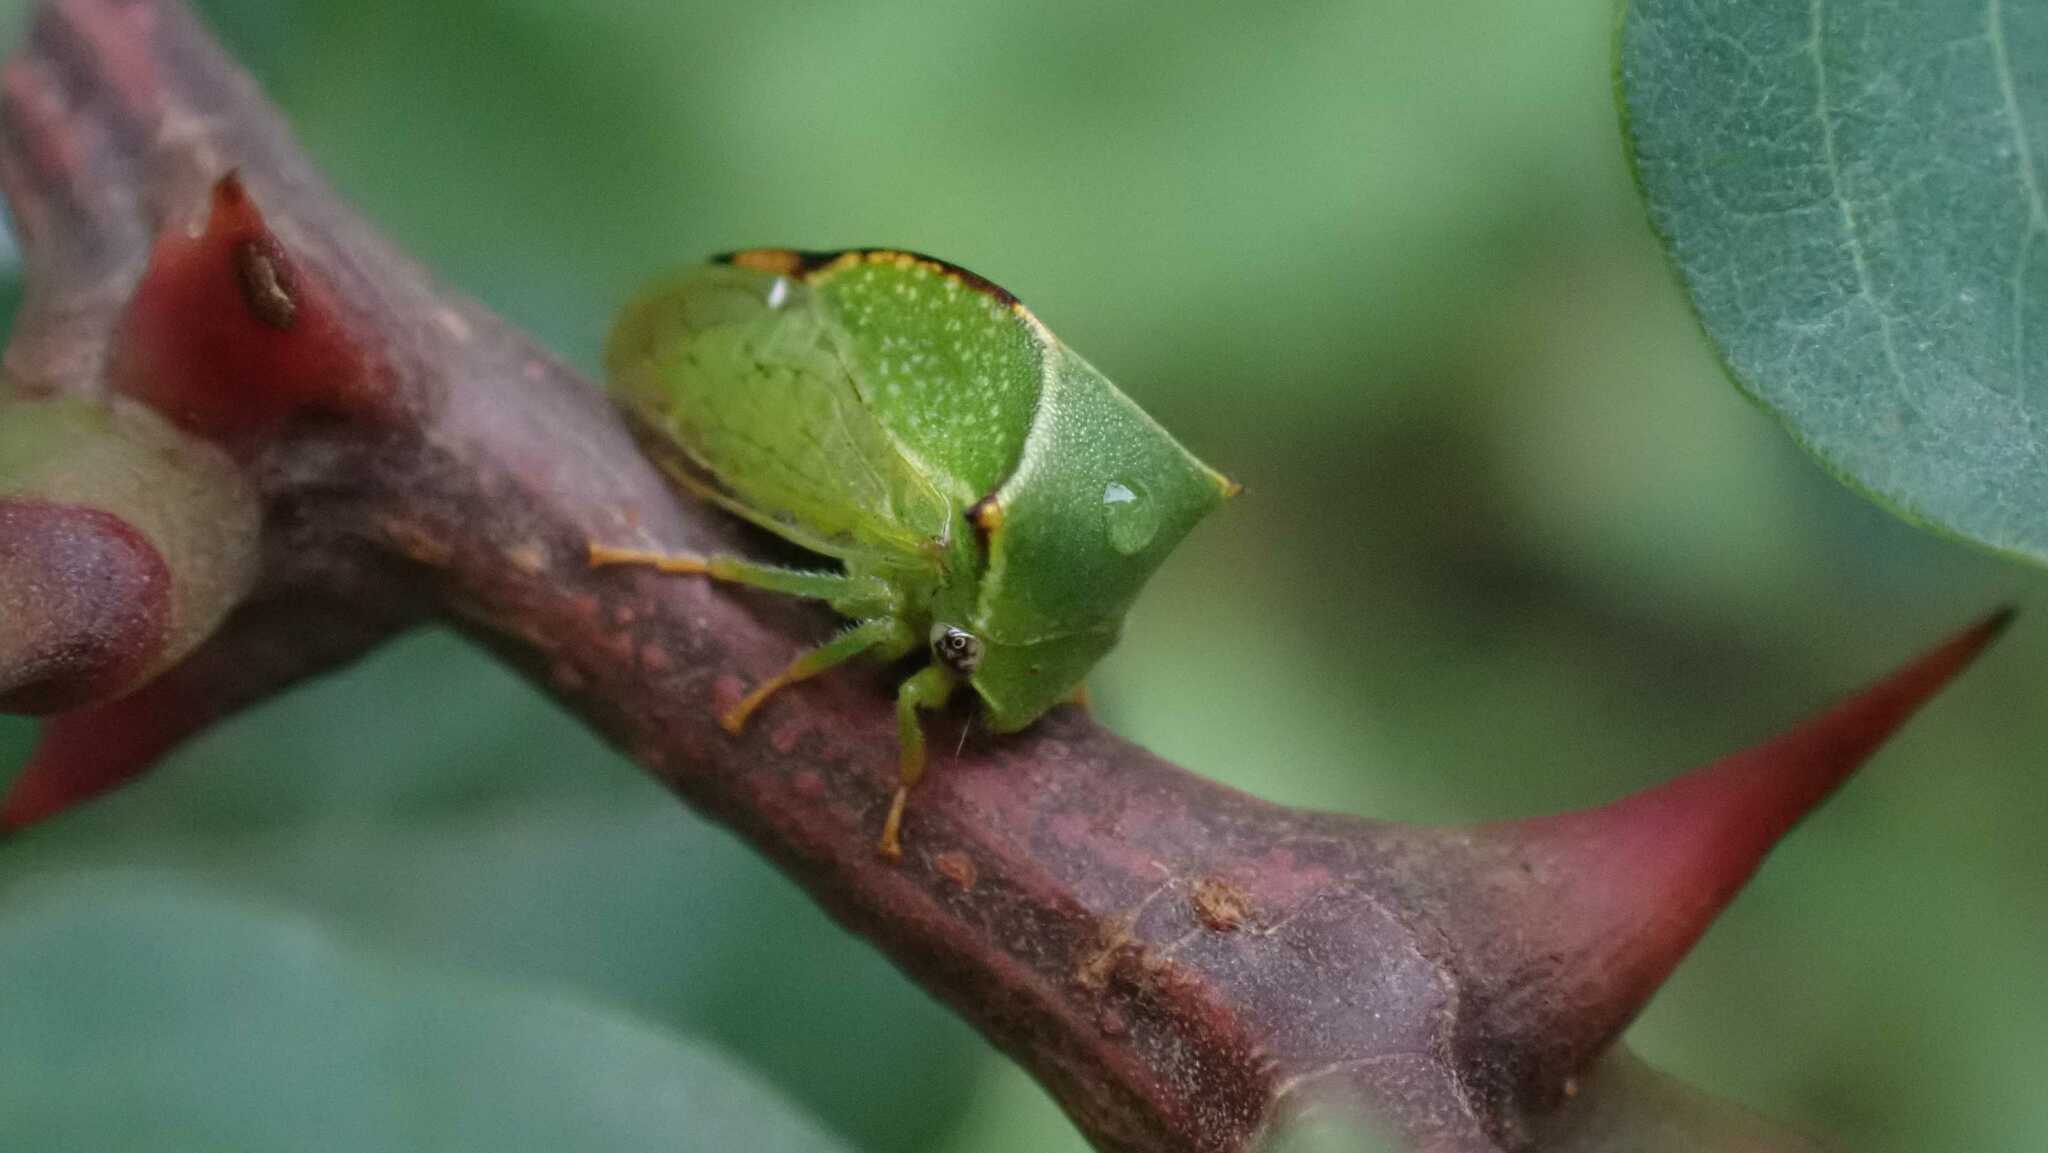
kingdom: Animalia
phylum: Arthropoda
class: Insecta
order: Hemiptera
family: Membracidae
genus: Stictocephala
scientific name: Stictocephala bisonia
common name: American buffalo treehopper
